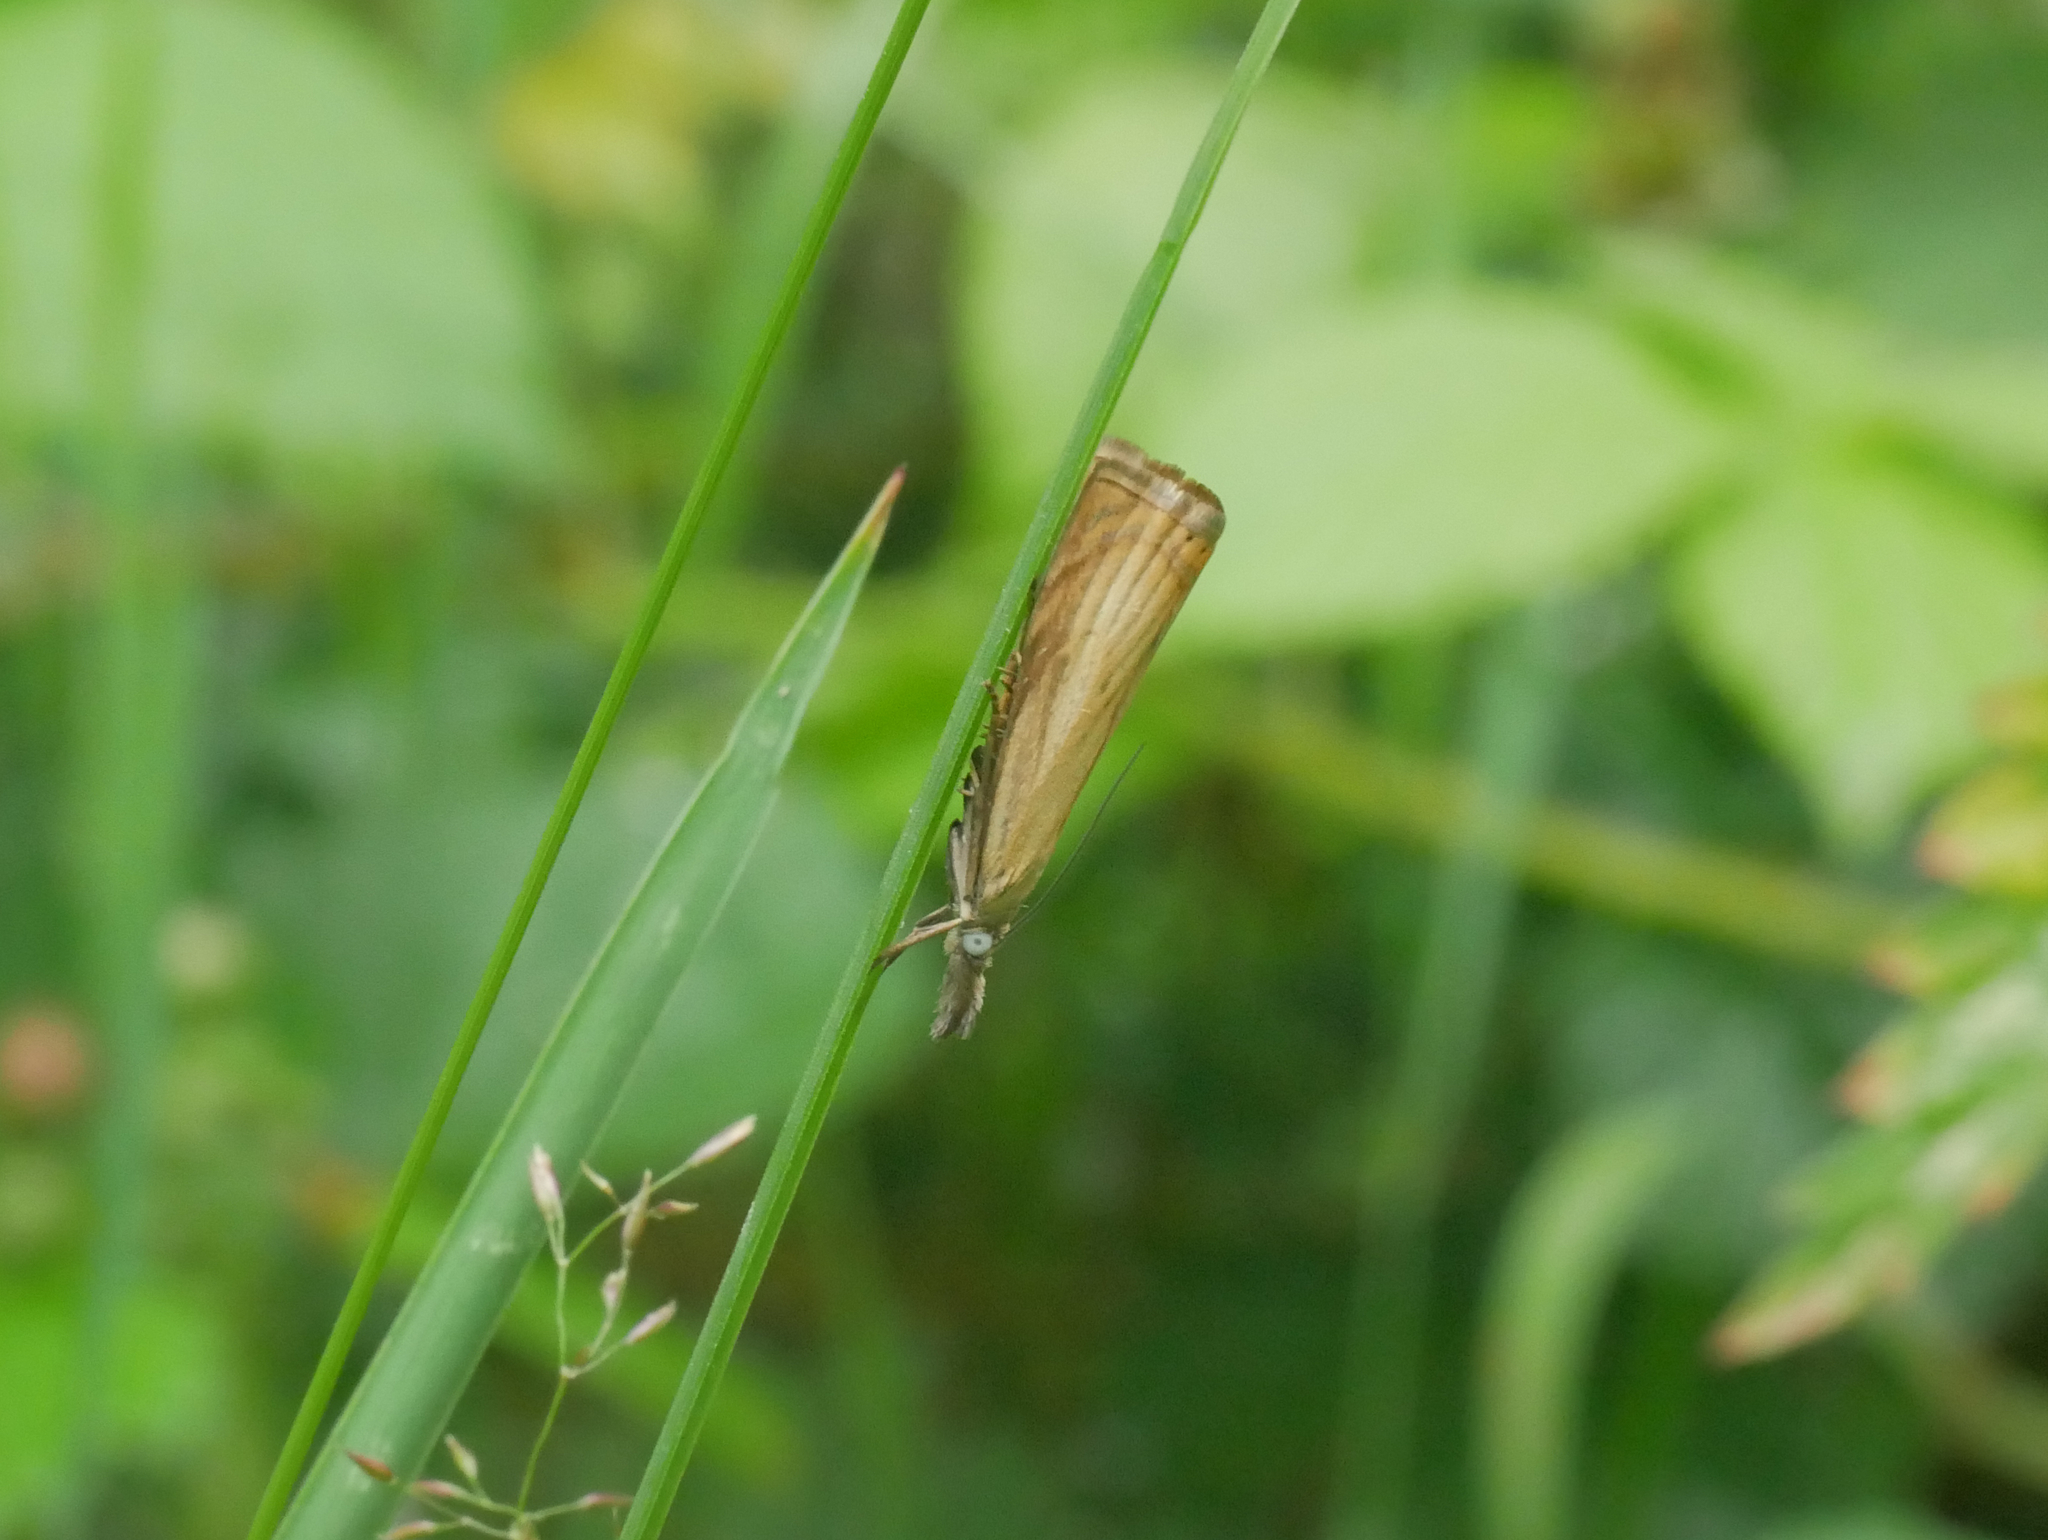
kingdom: Animalia
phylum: Arthropoda
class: Insecta
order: Lepidoptera
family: Crambidae
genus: Chrysoteuchia
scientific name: Chrysoteuchia culmella
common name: Garden grass-veneer
